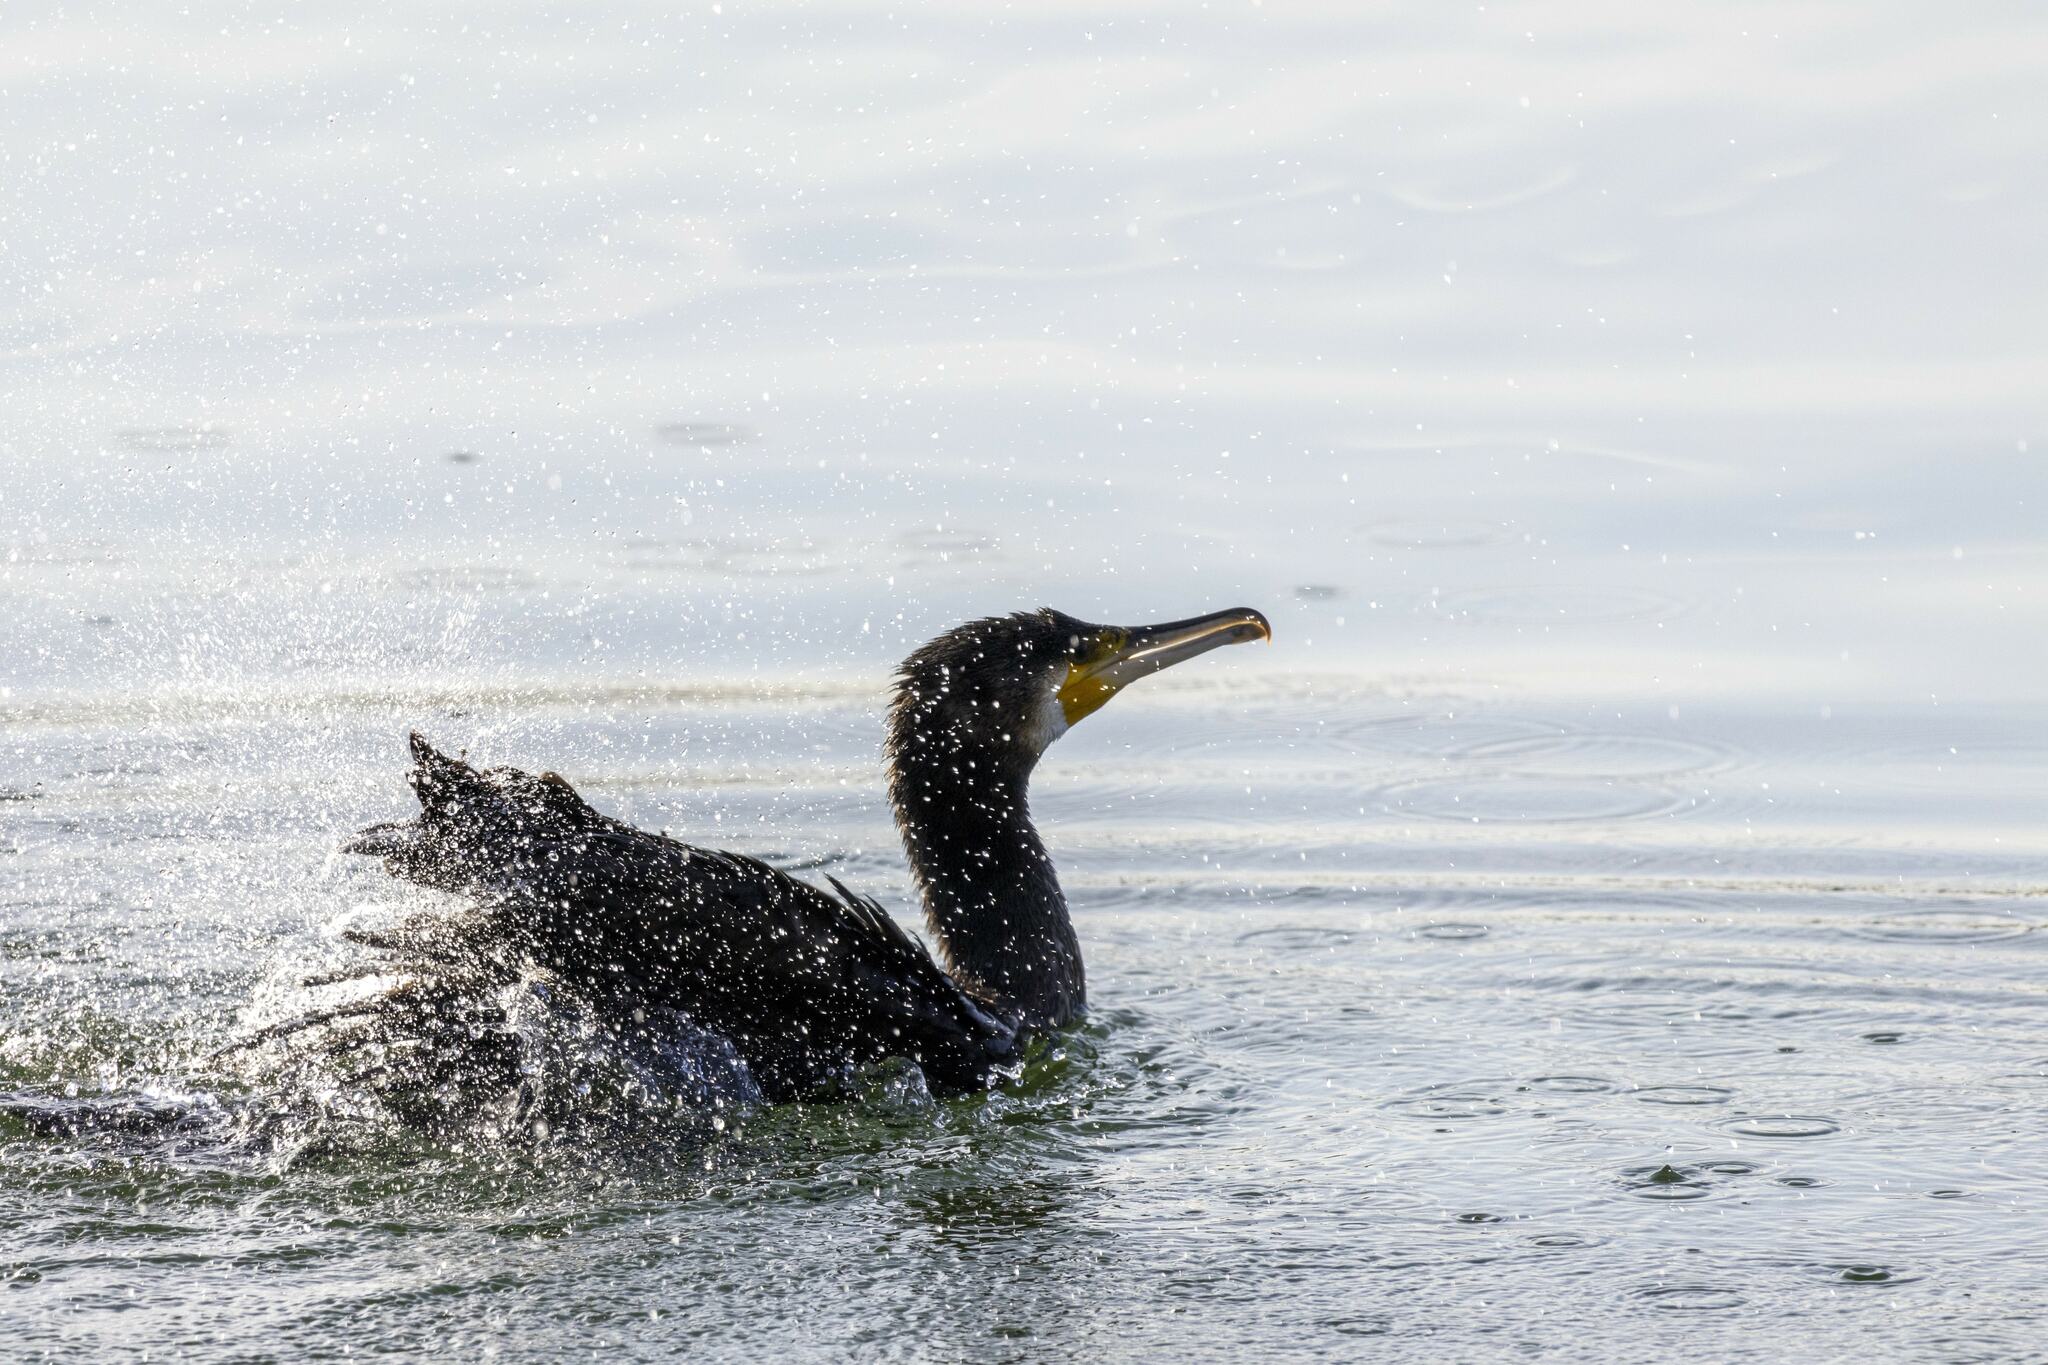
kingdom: Animalia
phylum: Chordata
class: Aves
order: Suliformes
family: Phalacrocoracidae
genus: Phalacrocorax
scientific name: Phalacrocorax carbo
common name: Great cormorant
